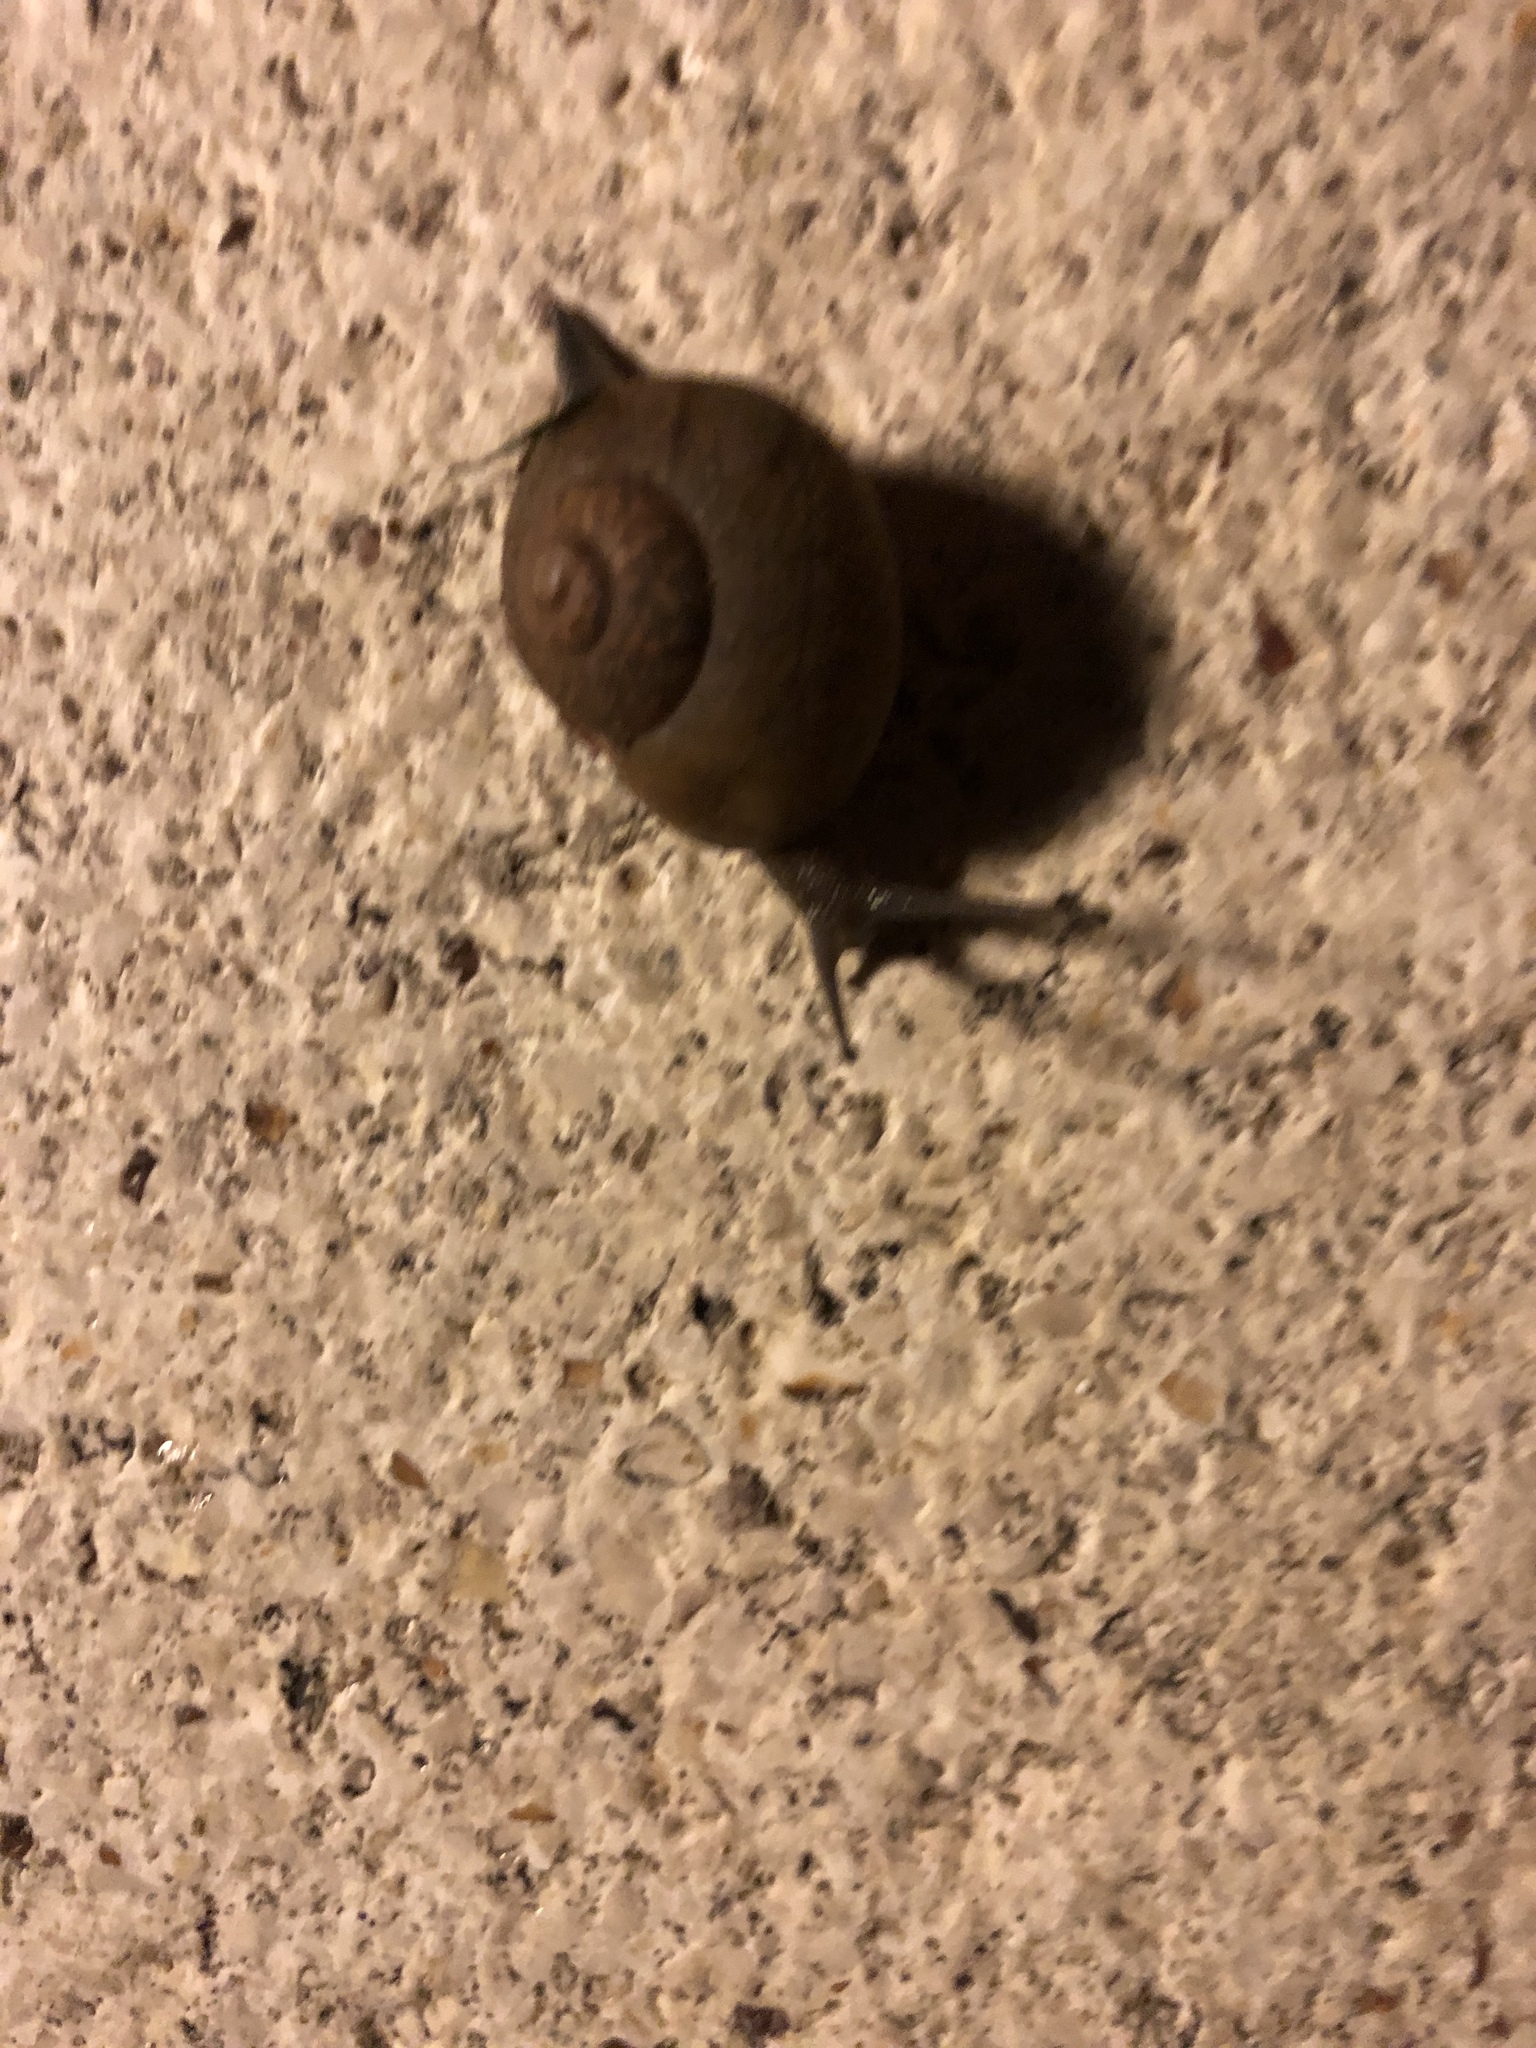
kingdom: Animalia
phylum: Mollusca
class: Gastropoda
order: Stylommatophora
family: Zachrysiidae
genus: Zachrysia
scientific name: Zachrysia provisoria
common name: Garden zachrysia
